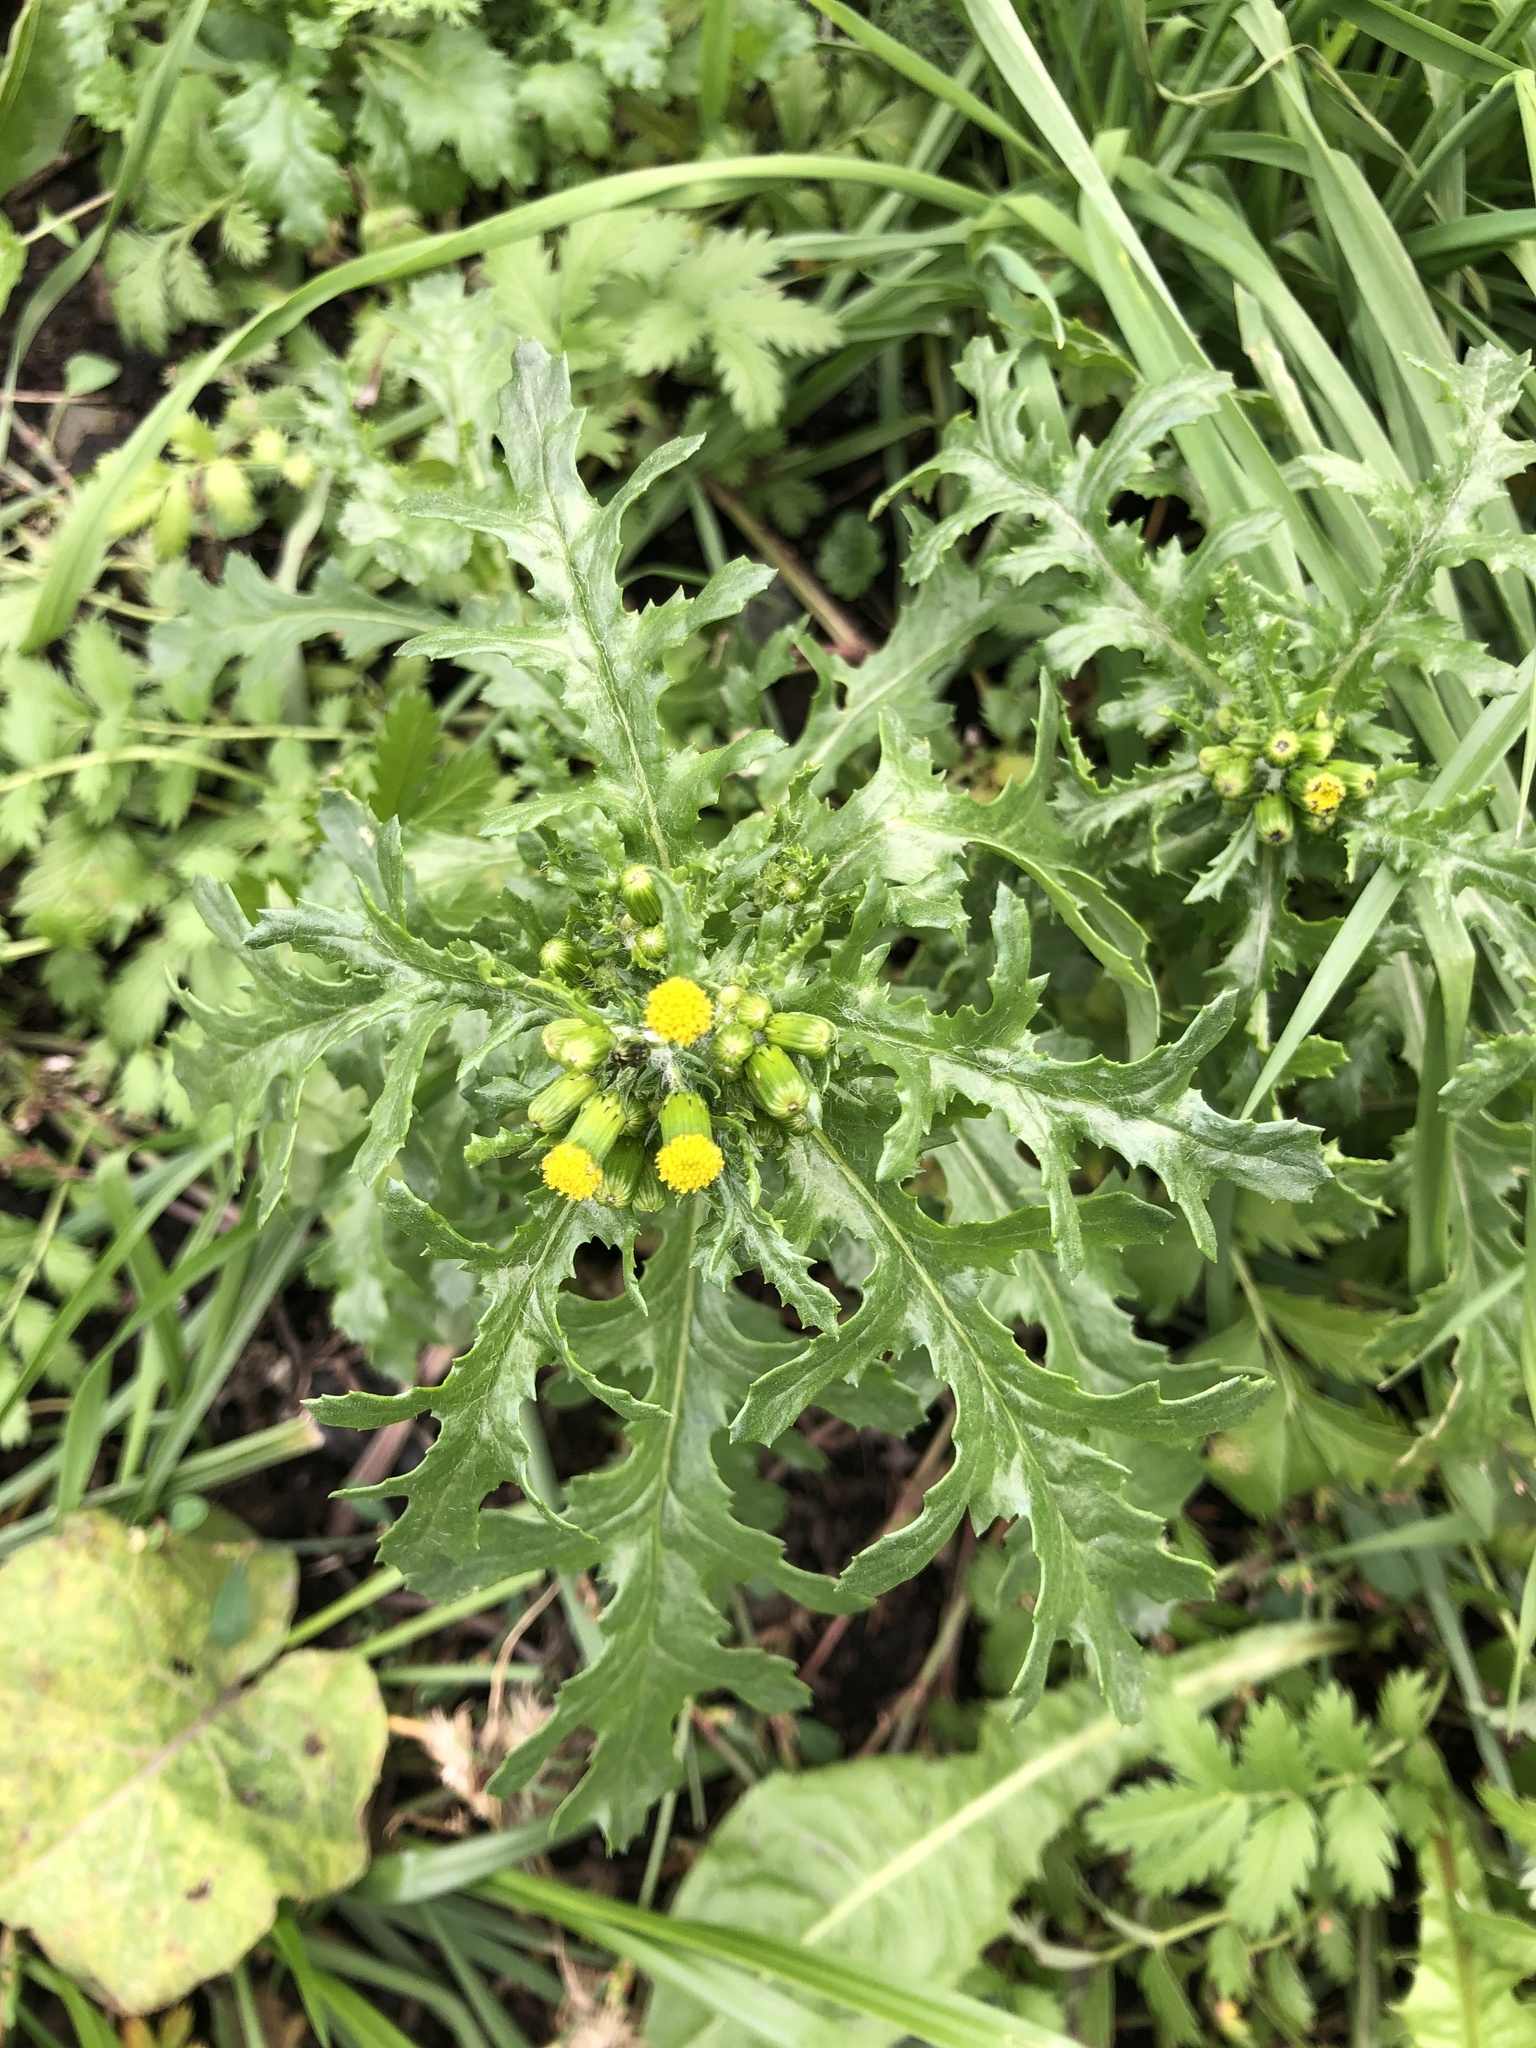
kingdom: Plantae
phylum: Tracheophyta
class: Magnoliopsida
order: Asterales
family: Asteraceae
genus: Senecio
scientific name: Senecio vulgaris
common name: Old-man-in-the-spring
